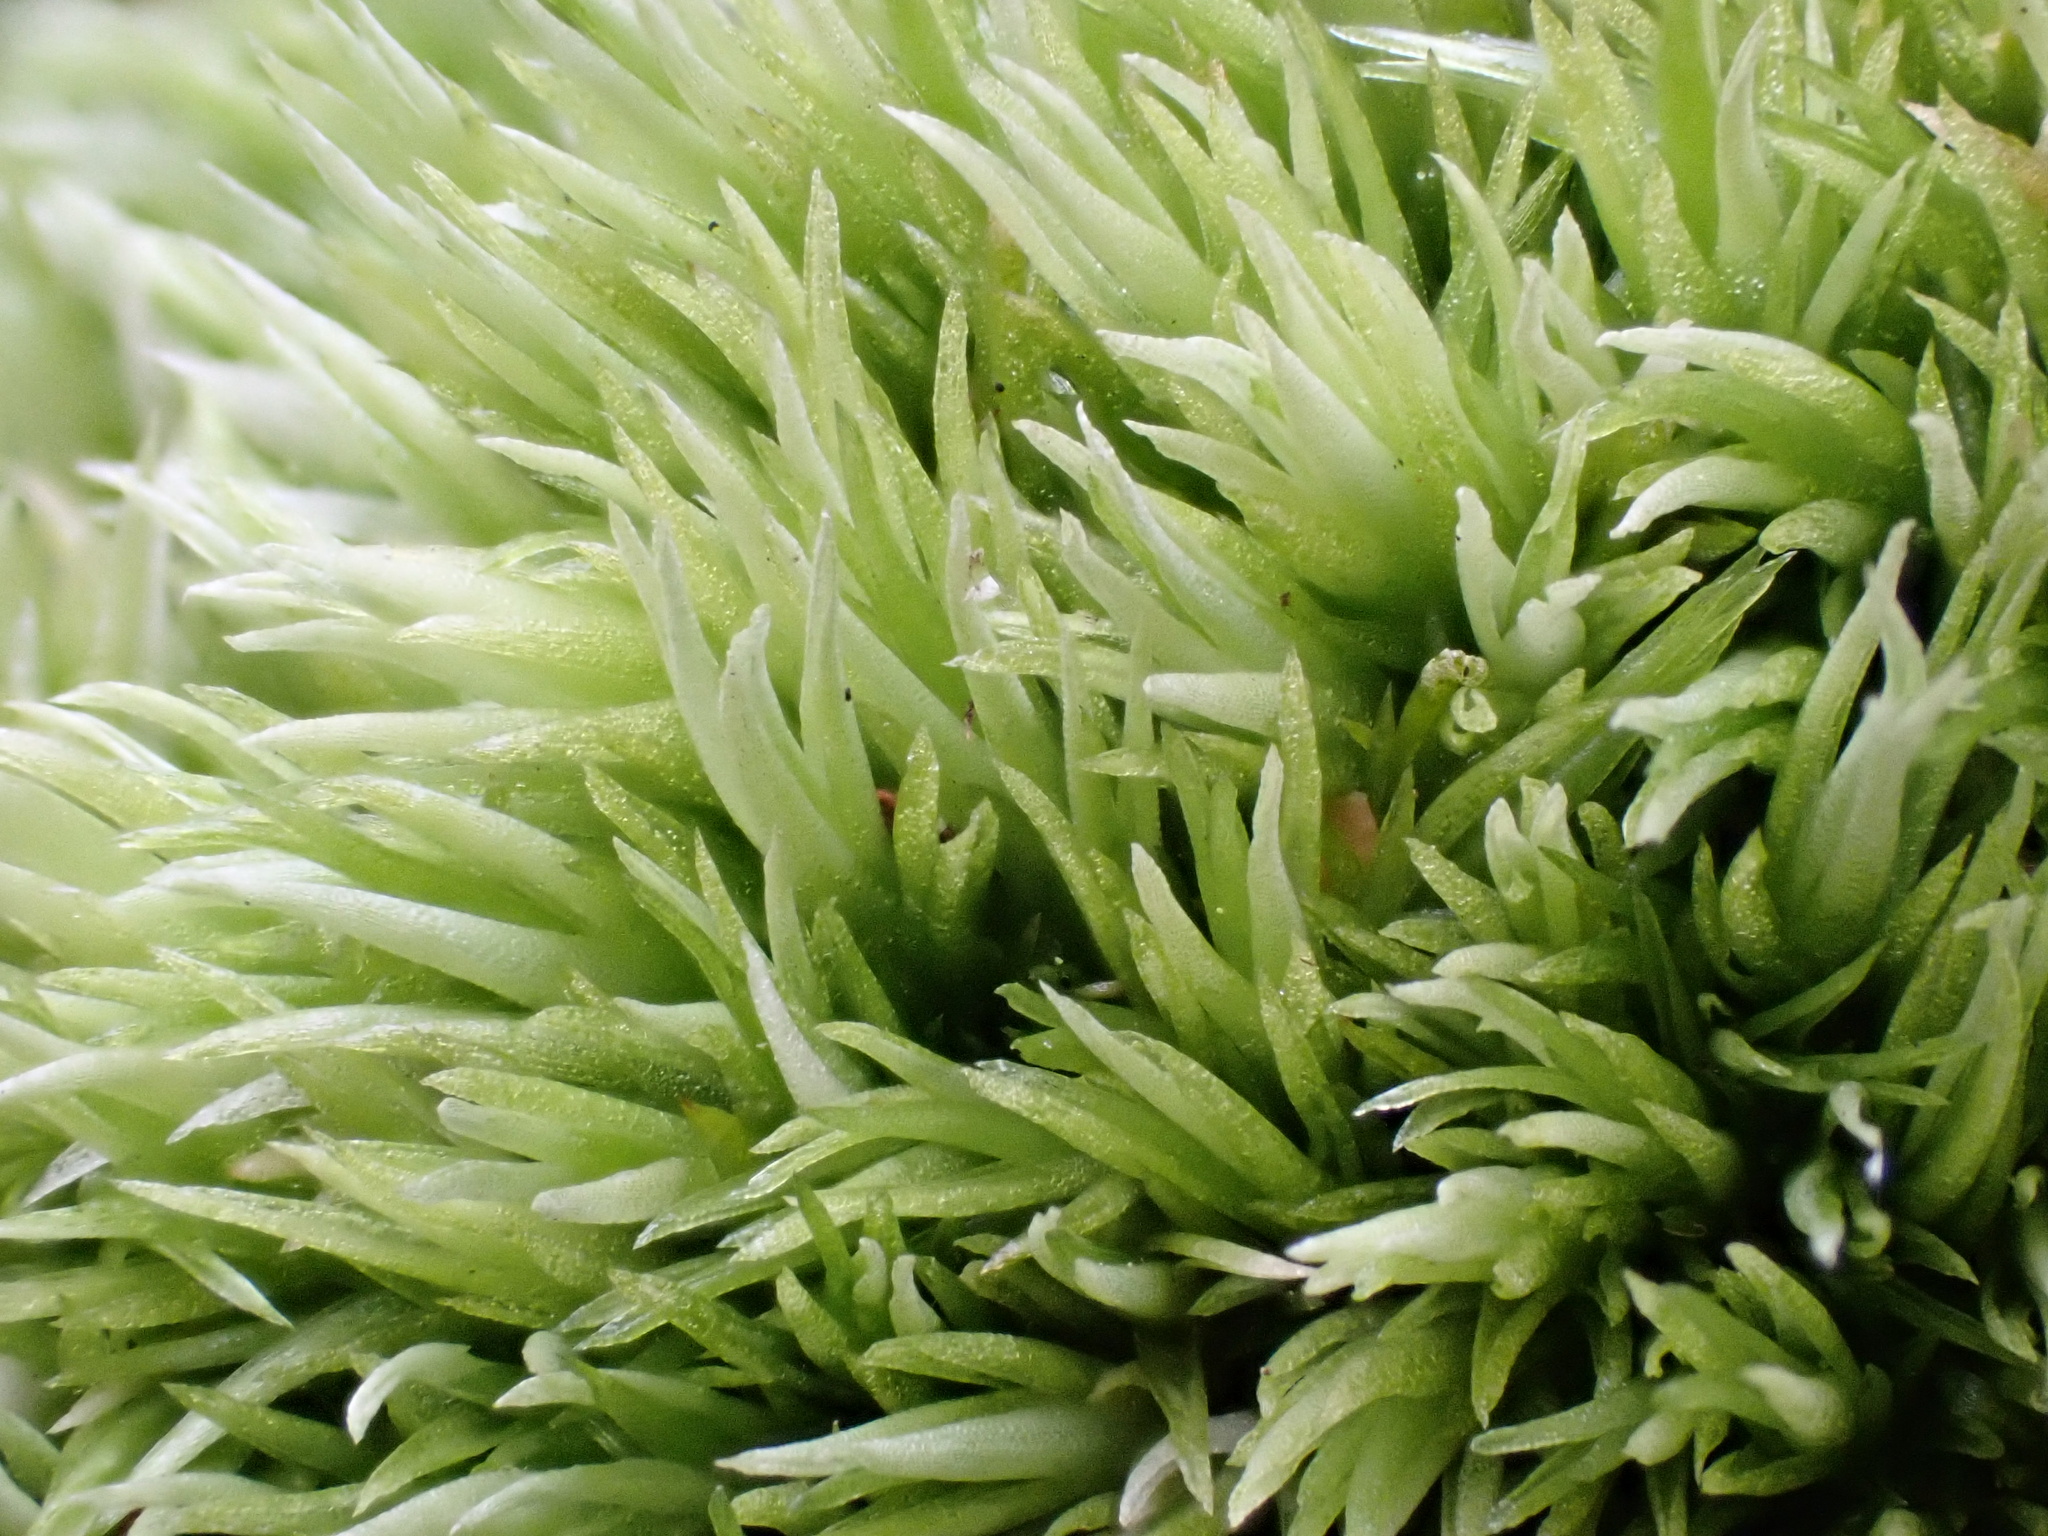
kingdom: Plantae
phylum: Bryophyta
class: Bryopsida
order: Dicranales
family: Leucobryaceae
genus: Leucobryum
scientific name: Leucobryum glaucum
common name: Large white-moss
